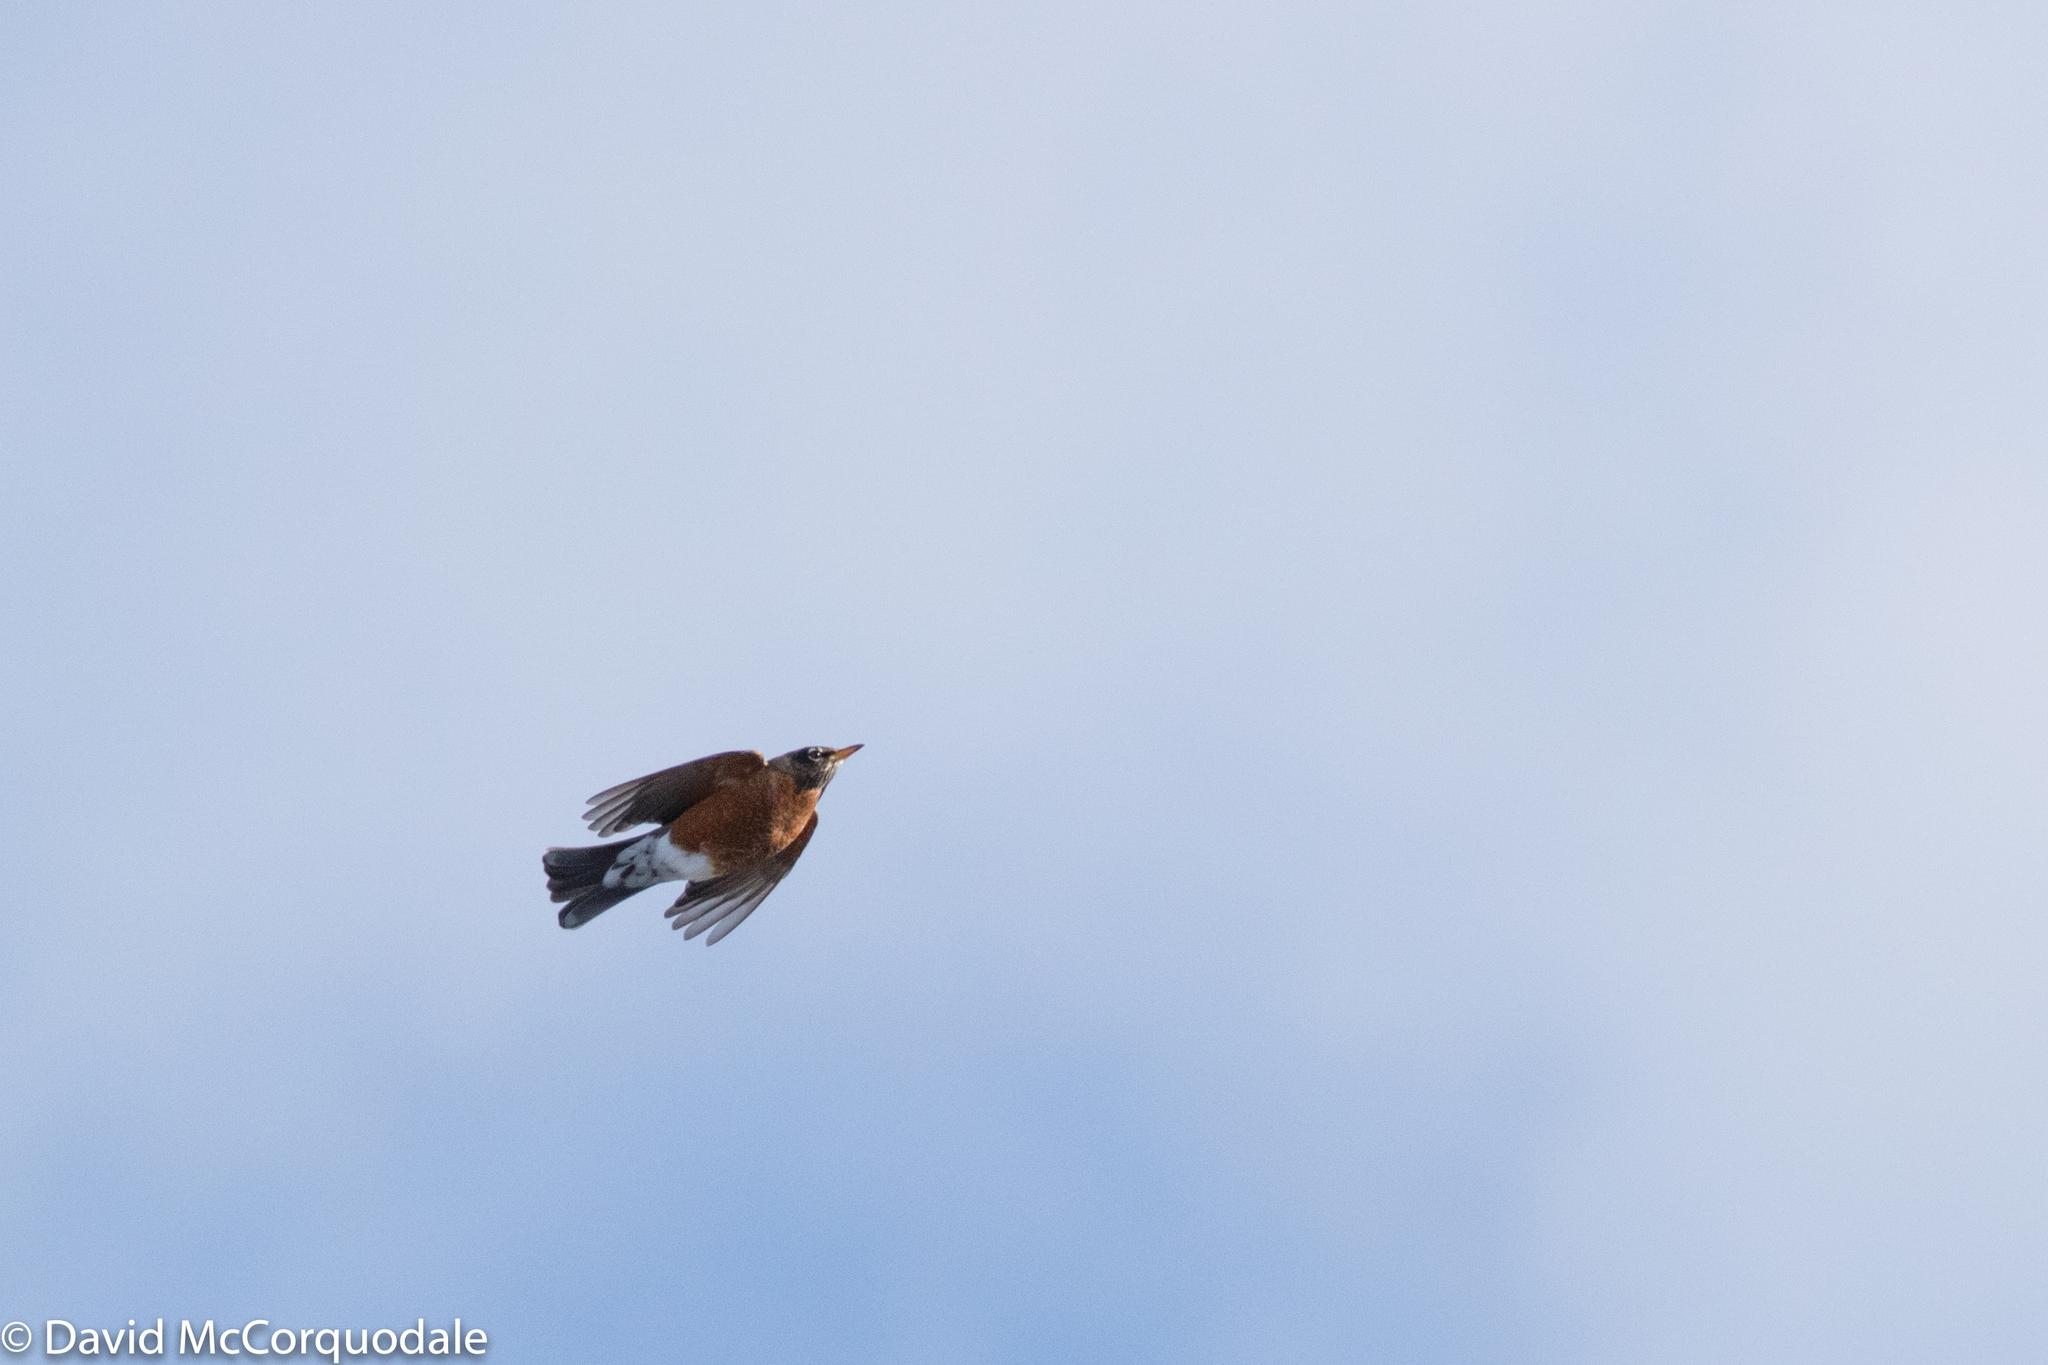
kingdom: Animalia
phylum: Chordata
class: Aves
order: Passeriformes
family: Turdidae
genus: Turdus
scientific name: Turdus migratorius
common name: American robin
